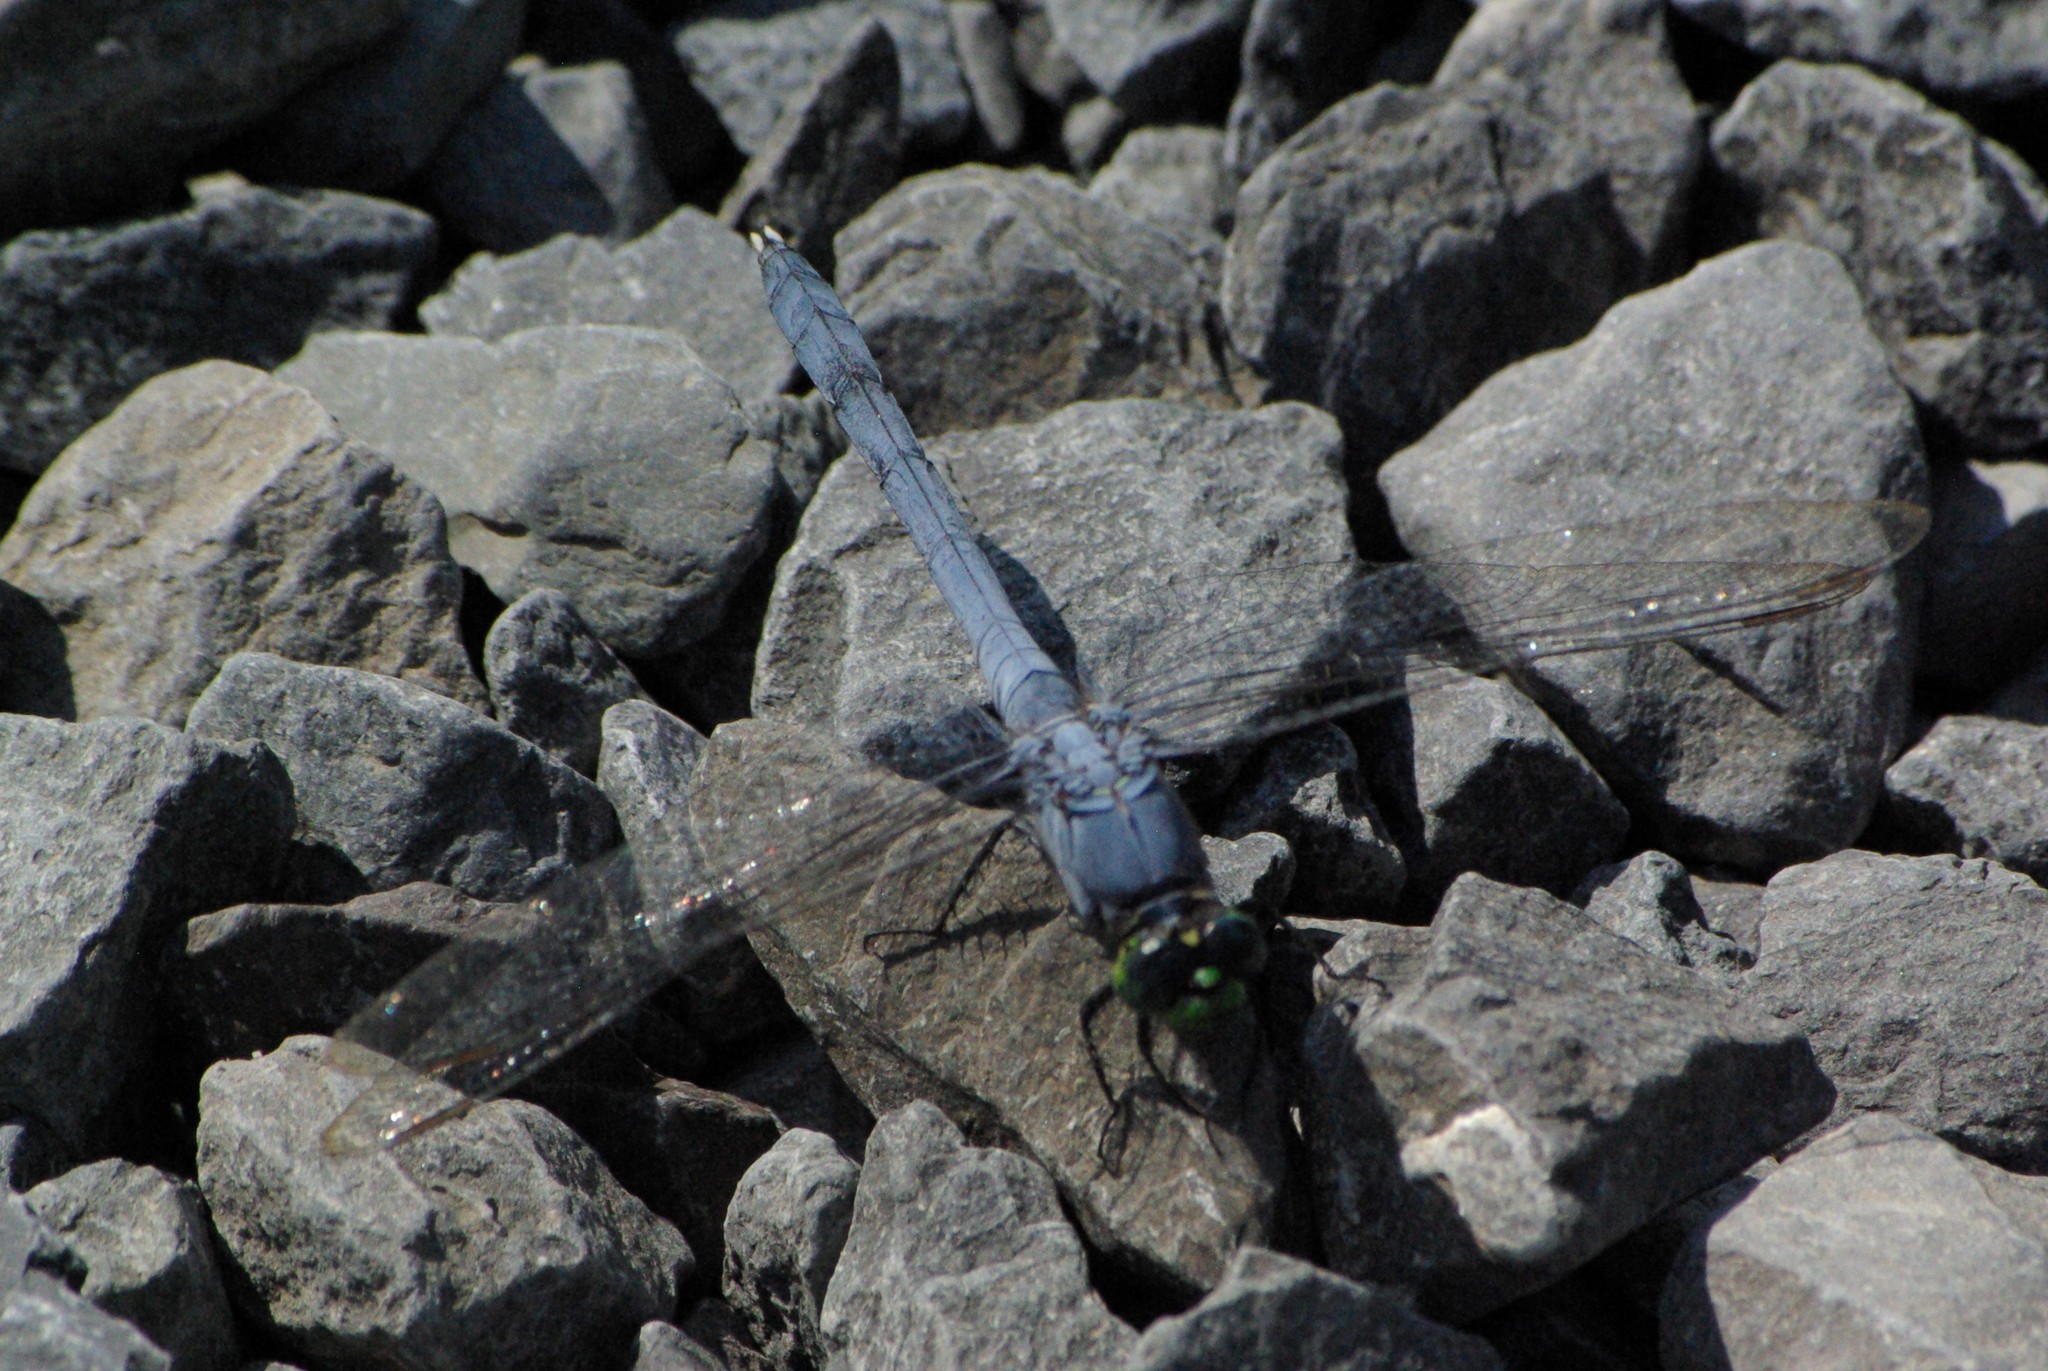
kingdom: Animalia
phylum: Arthropoda
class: Insecta
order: Odonata
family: Libellulidae
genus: Erythemis
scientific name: Erythemis simplicicollis
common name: Eastern pondhawk
